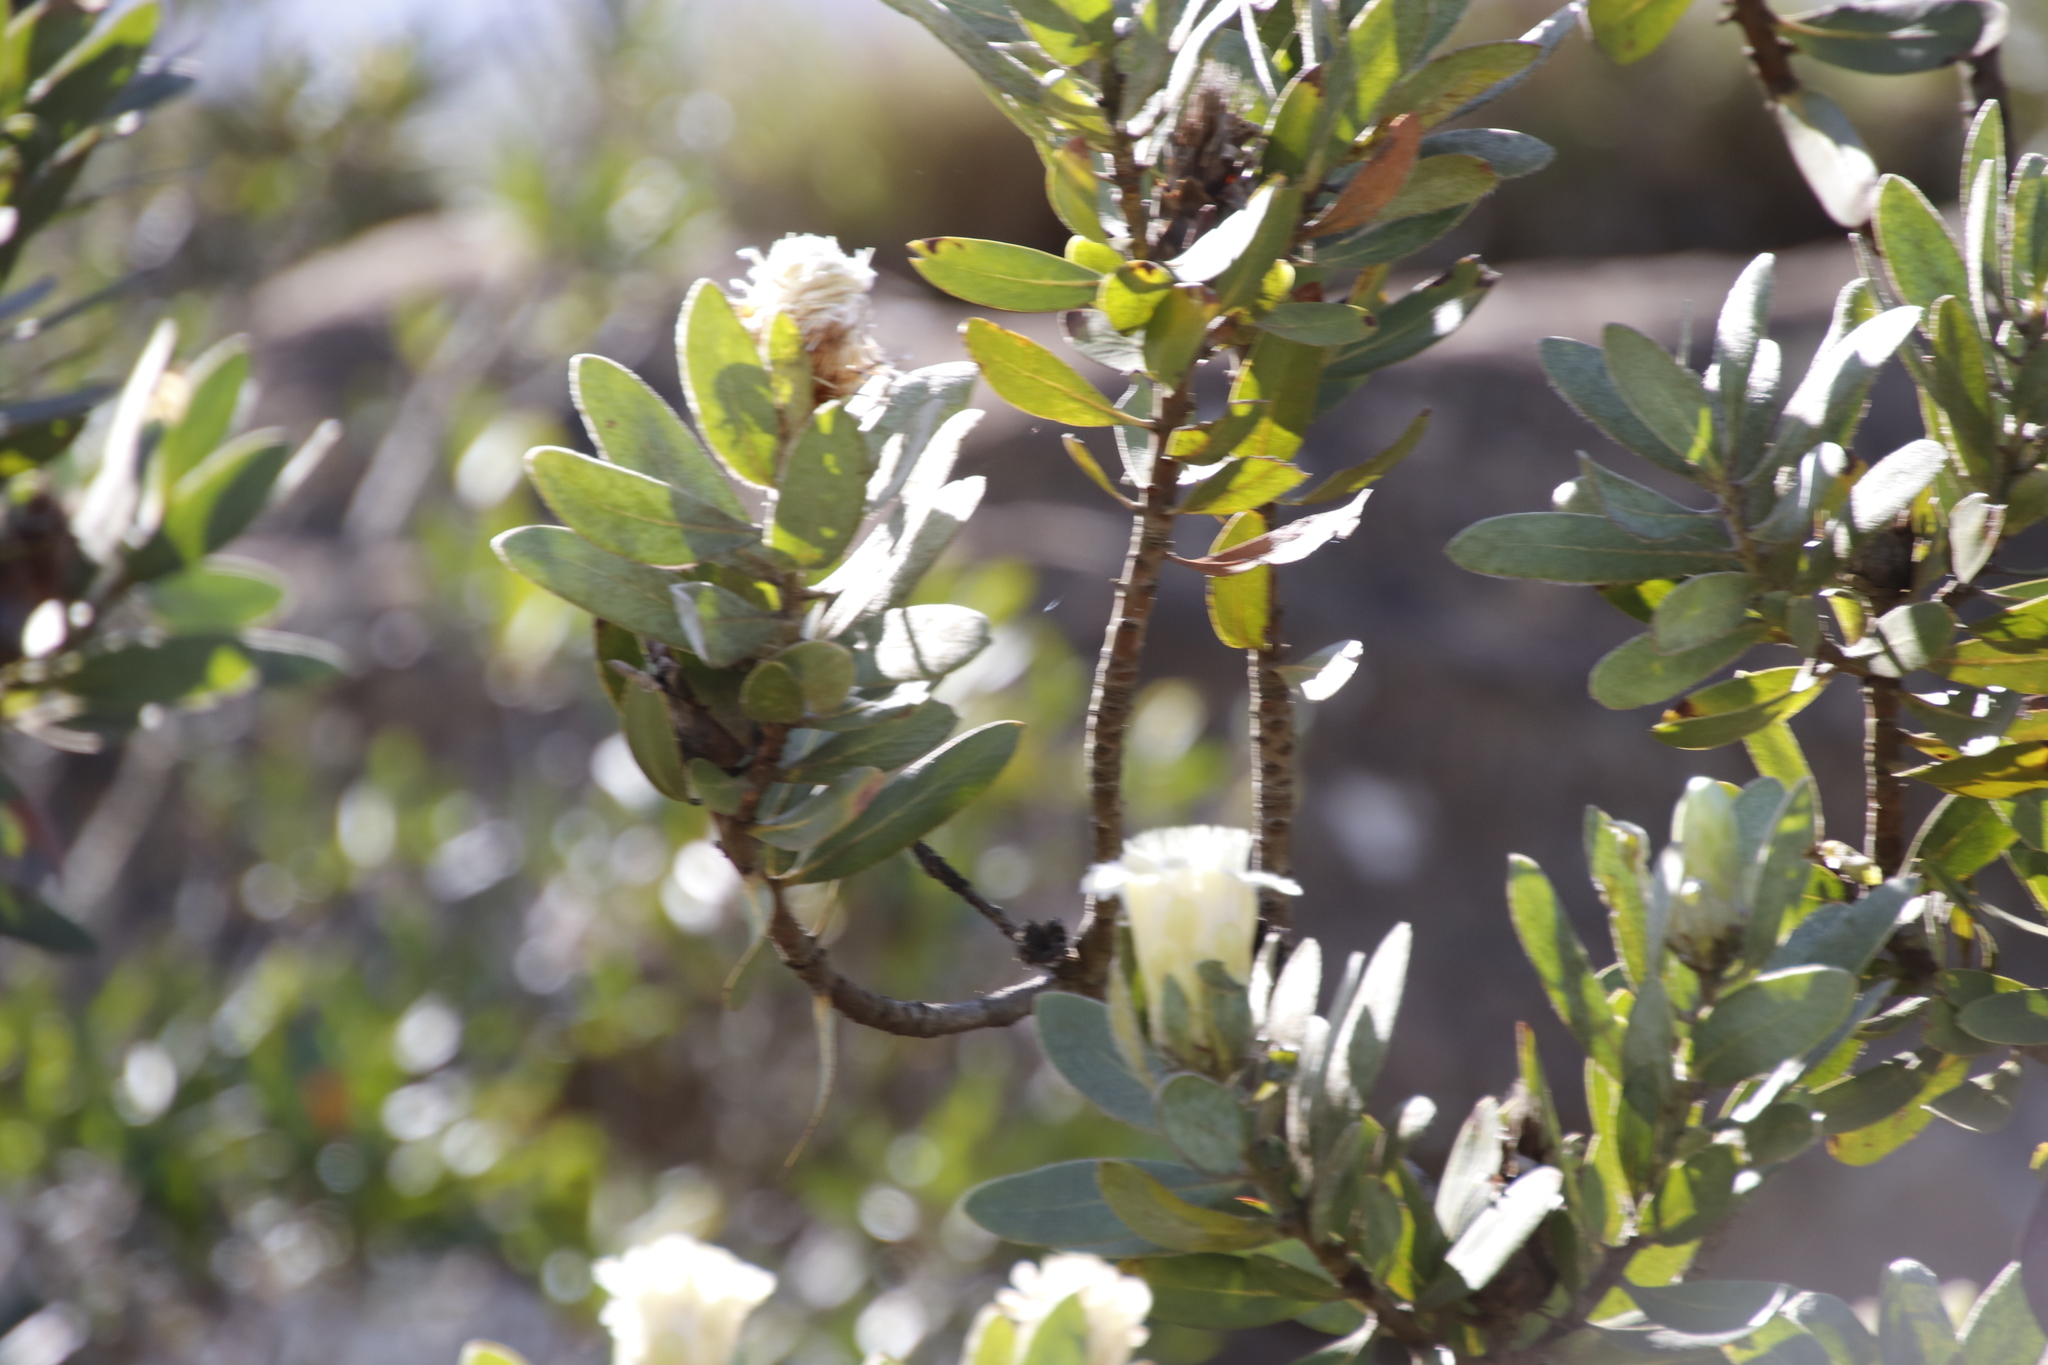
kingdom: Plantae
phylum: Tracheophyta
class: Magnoliopsida
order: Proteales
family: Proteaceae
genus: Protea
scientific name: Protea subvestita
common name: Lip-flower sugarbush
